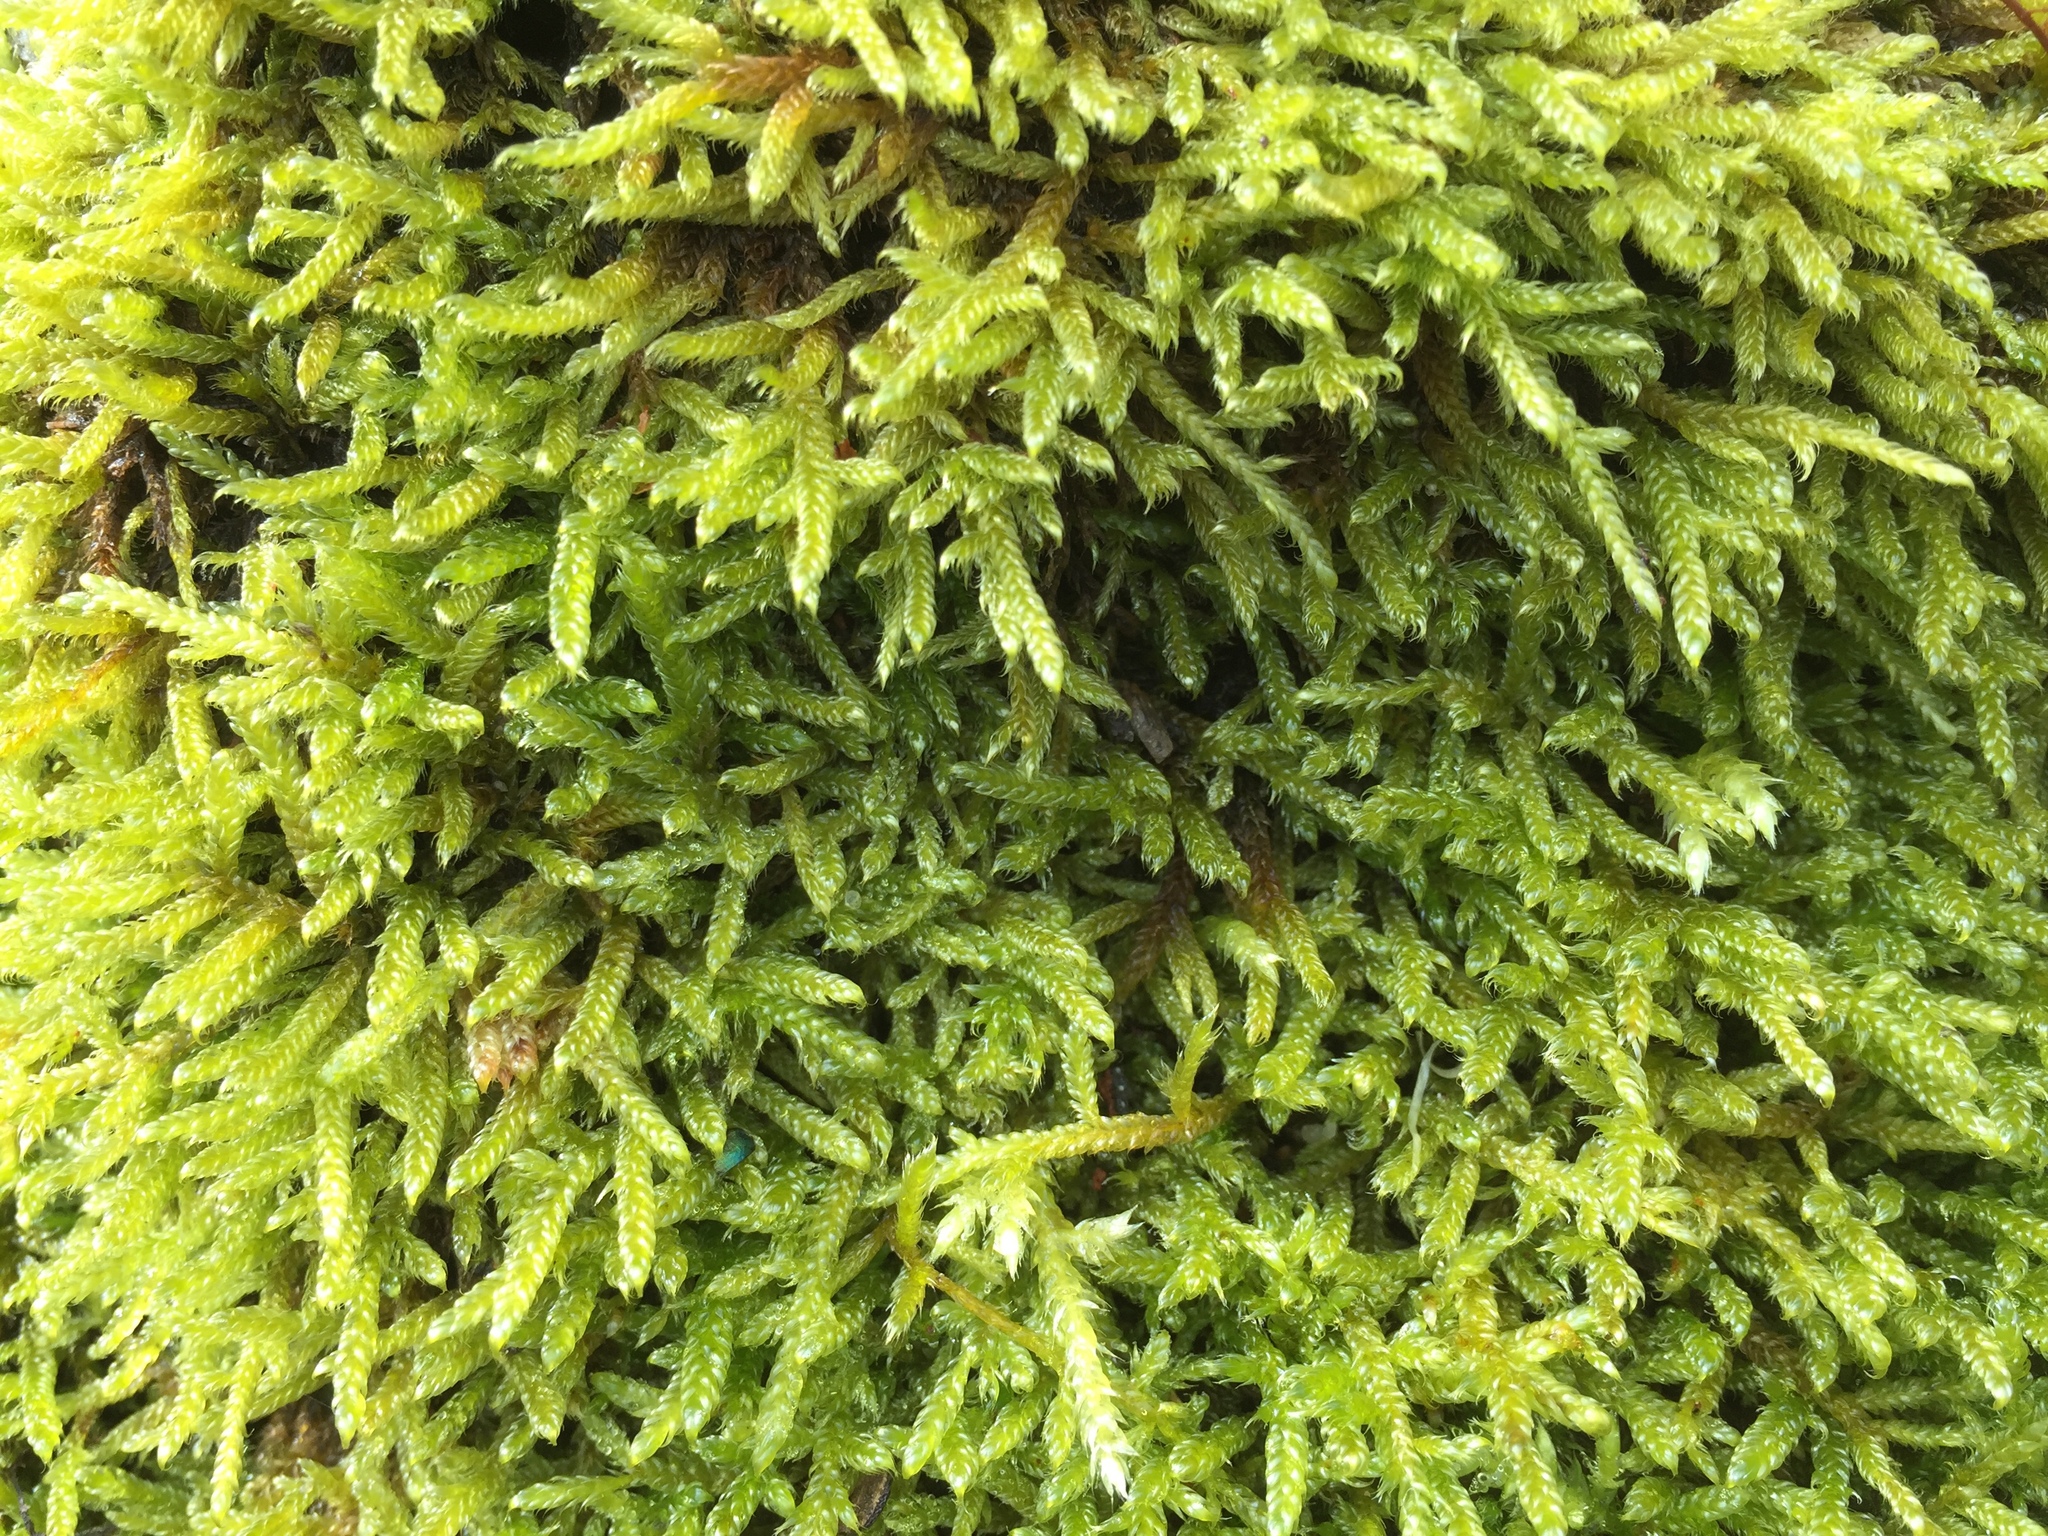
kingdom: Plantae
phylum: Bryophyta
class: Bryopsida
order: Hypnales
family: Hypnaceae
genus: Hypnum
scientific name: Hypnum cupressiforme
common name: Cypress-leaved plait-moss
